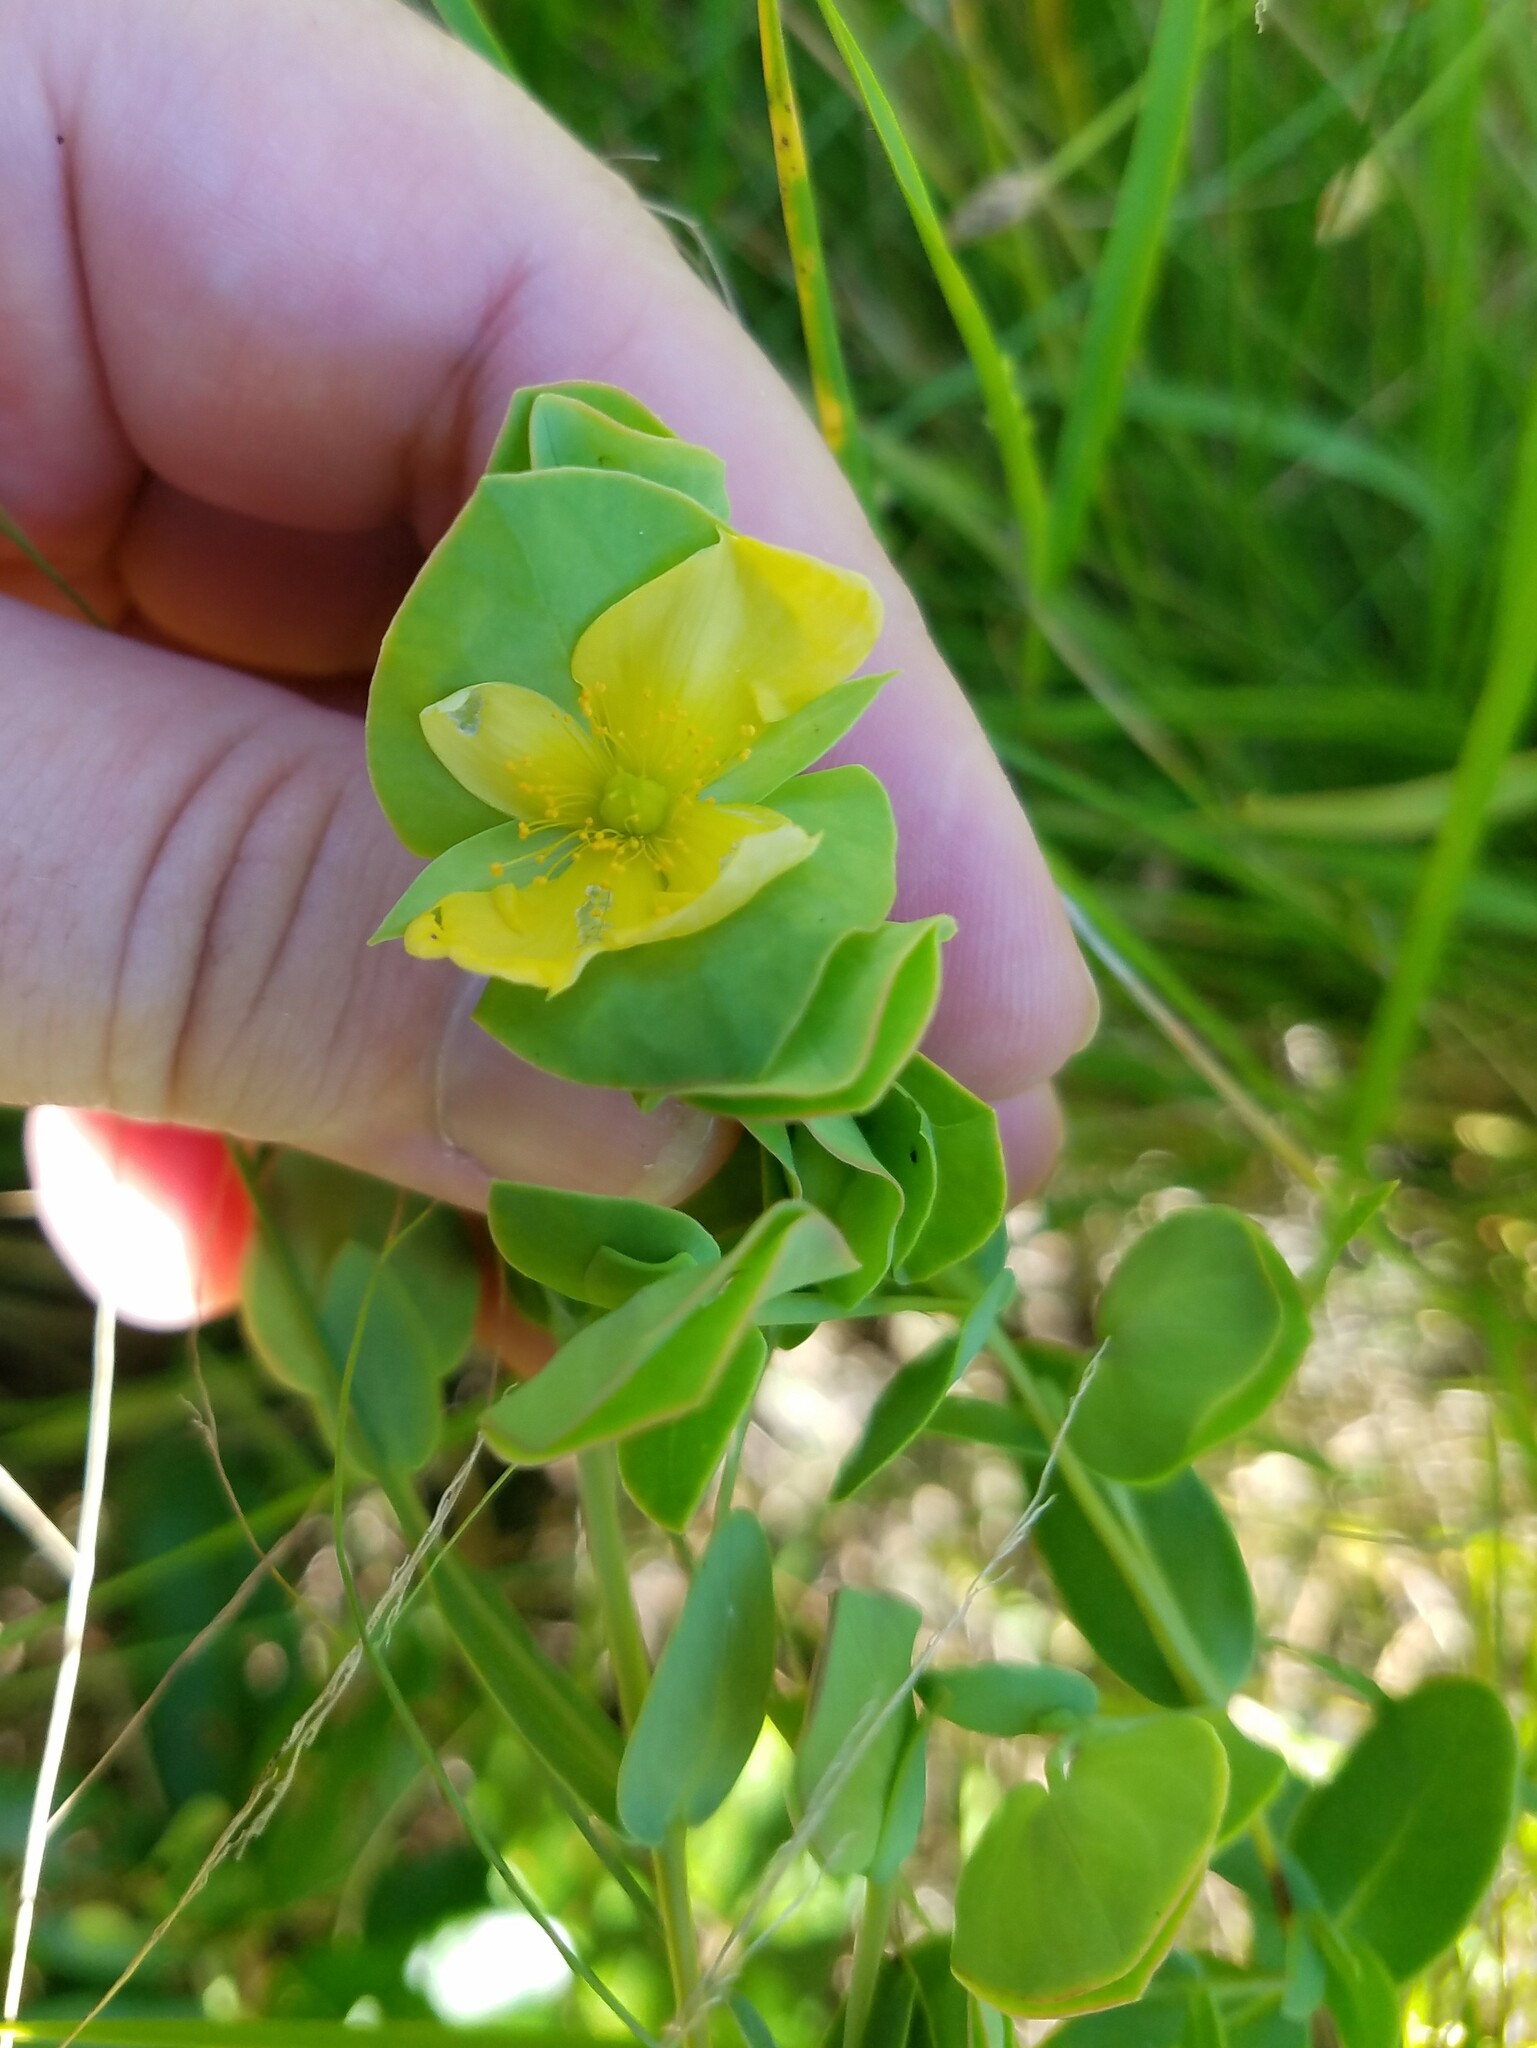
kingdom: Plantae
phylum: Tracheophyta
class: Magnoliopsida
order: Malpighiales
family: Hypericaceae
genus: Hypericum
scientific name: Hypericum crux-andreae
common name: St.-peter's-wort
